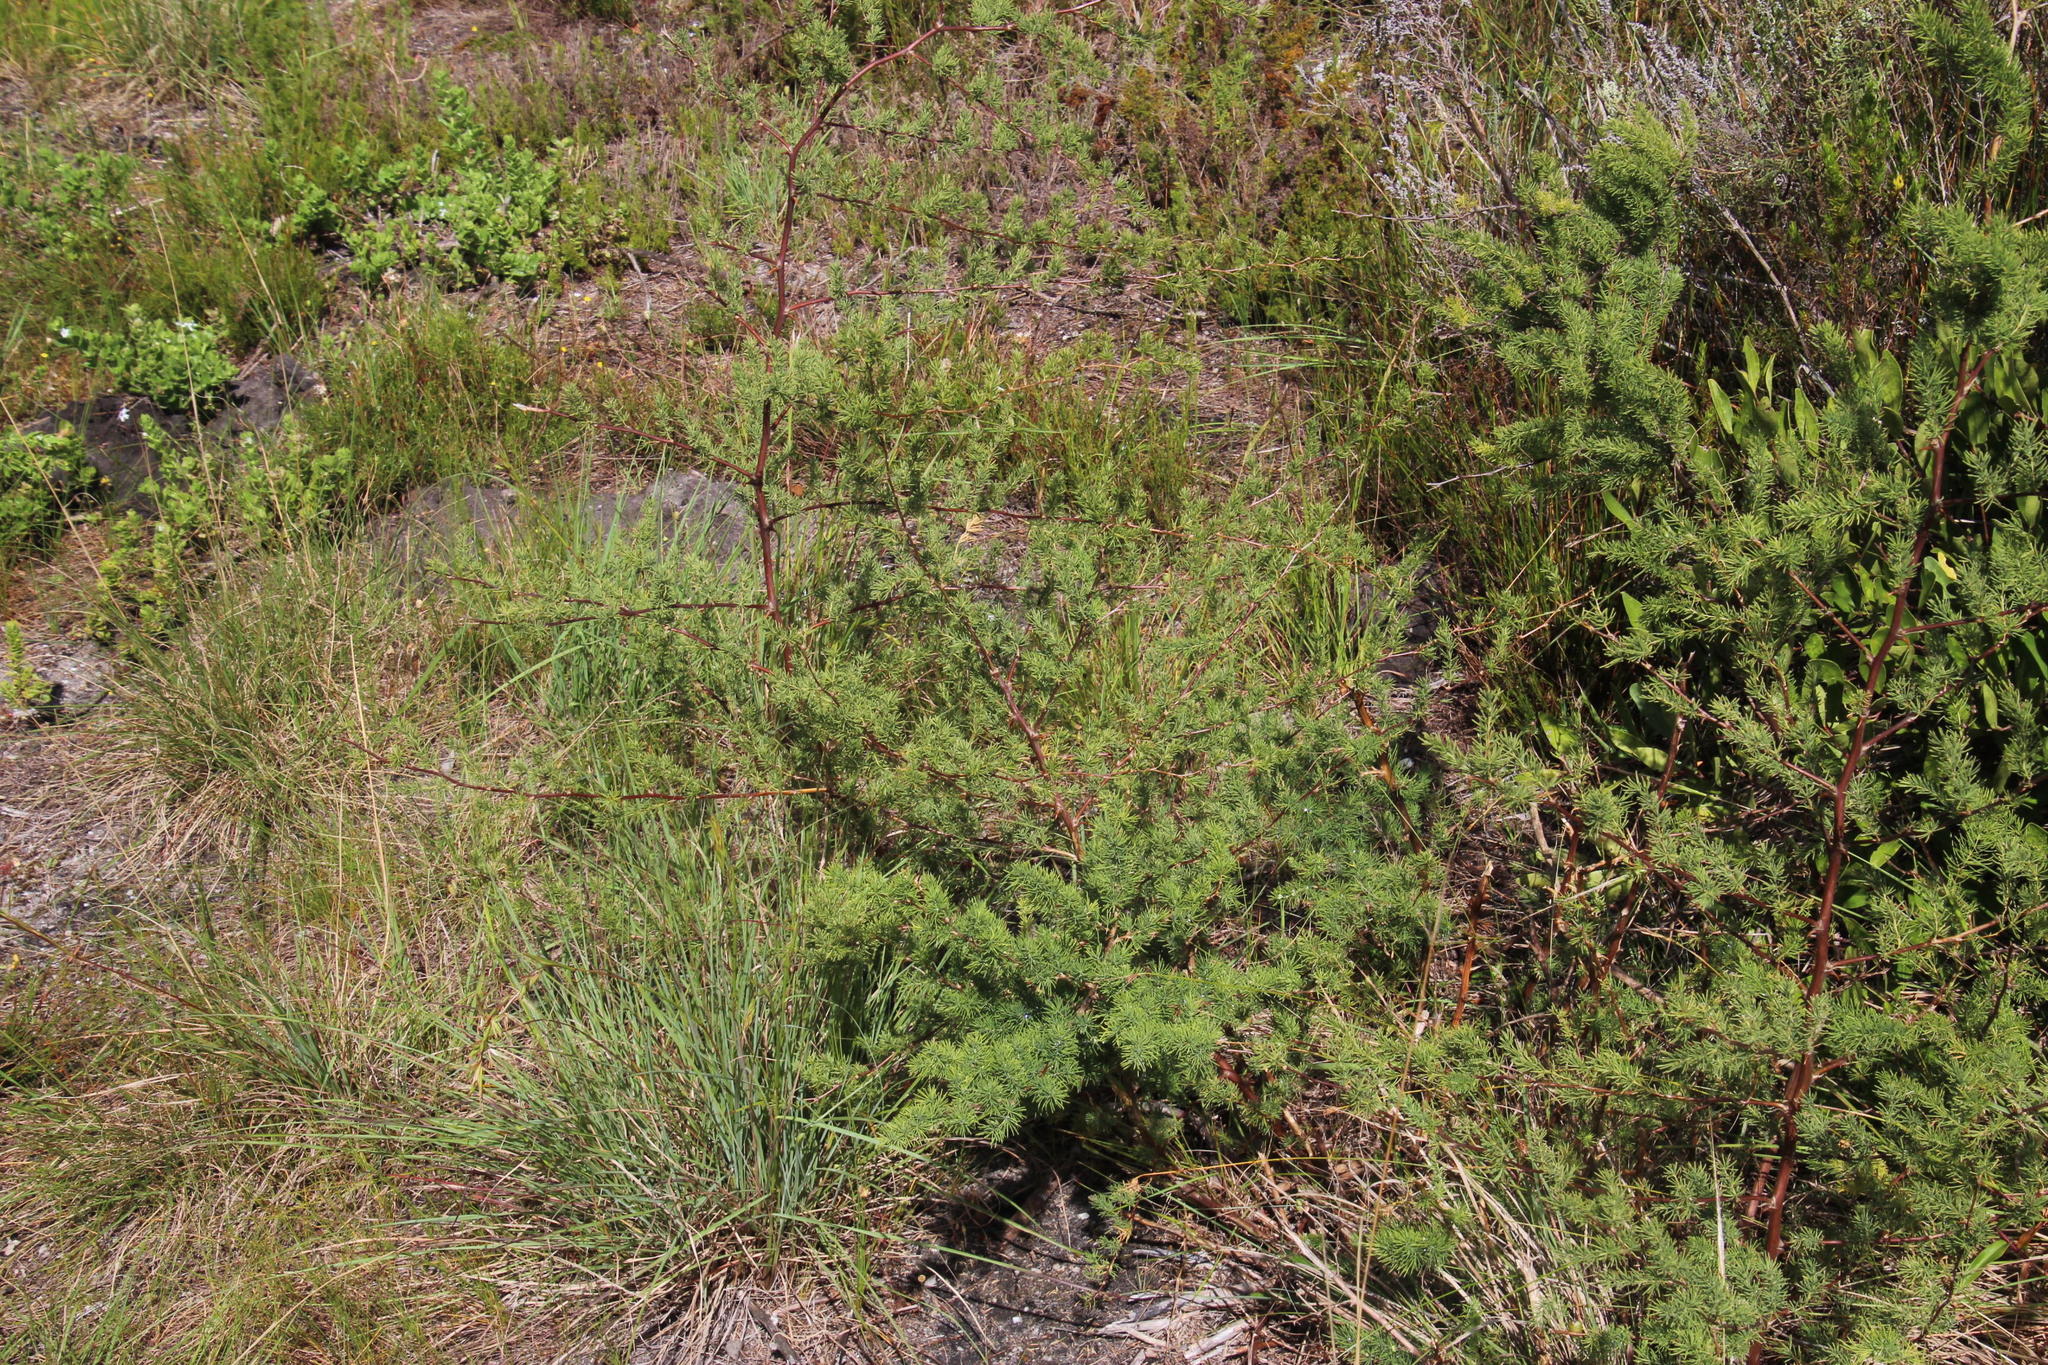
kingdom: Plantae
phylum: Tracheophyta
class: Liliopsida
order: Asparagales
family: Asparagaceae
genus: Asparagus
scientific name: Asparagus rubicundus
